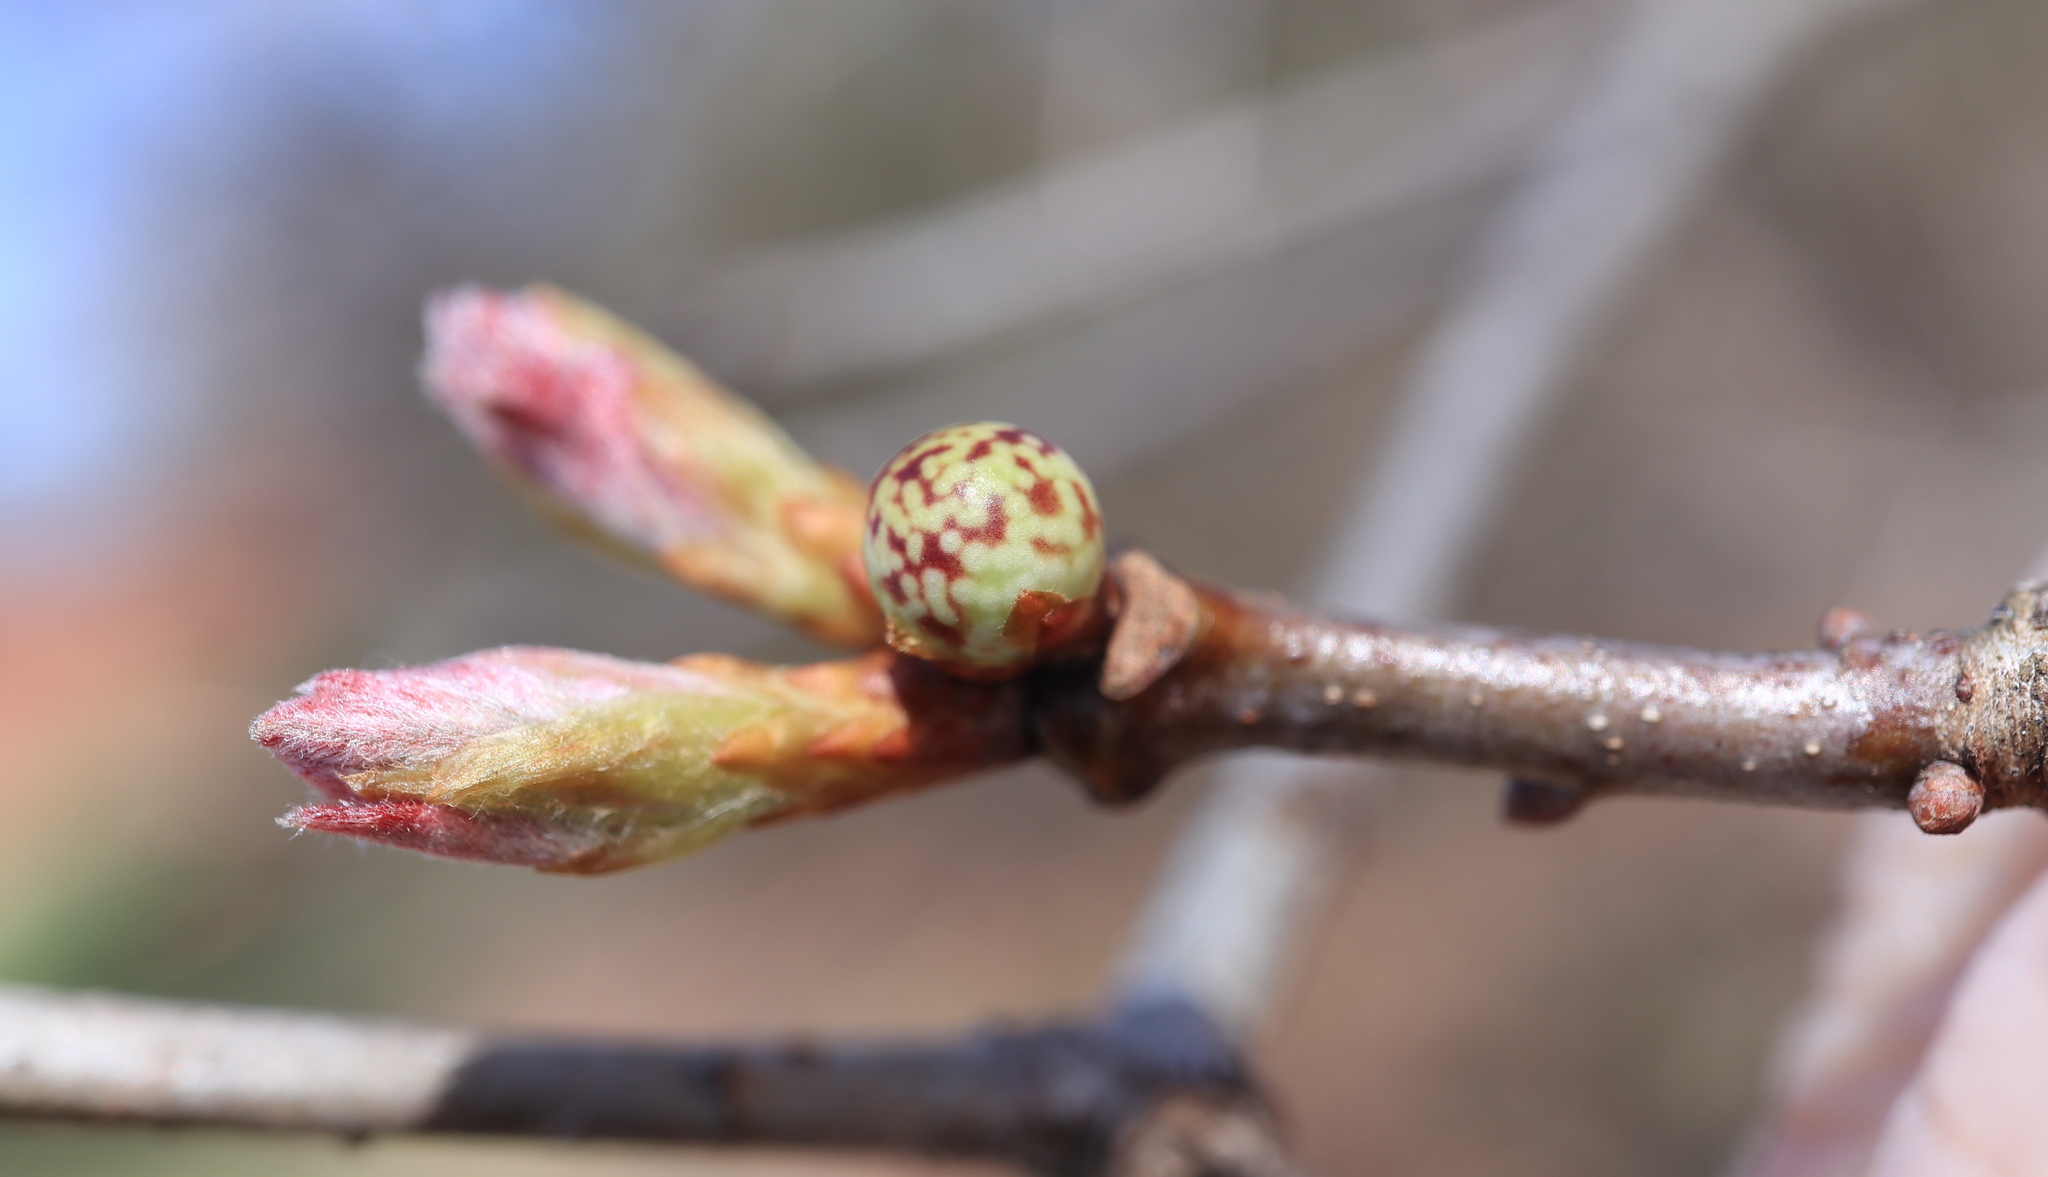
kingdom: Animalia
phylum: Arthropoda
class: Insecta
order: Hymenoptera
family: Cynipidae
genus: Andricus
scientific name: Andricus
